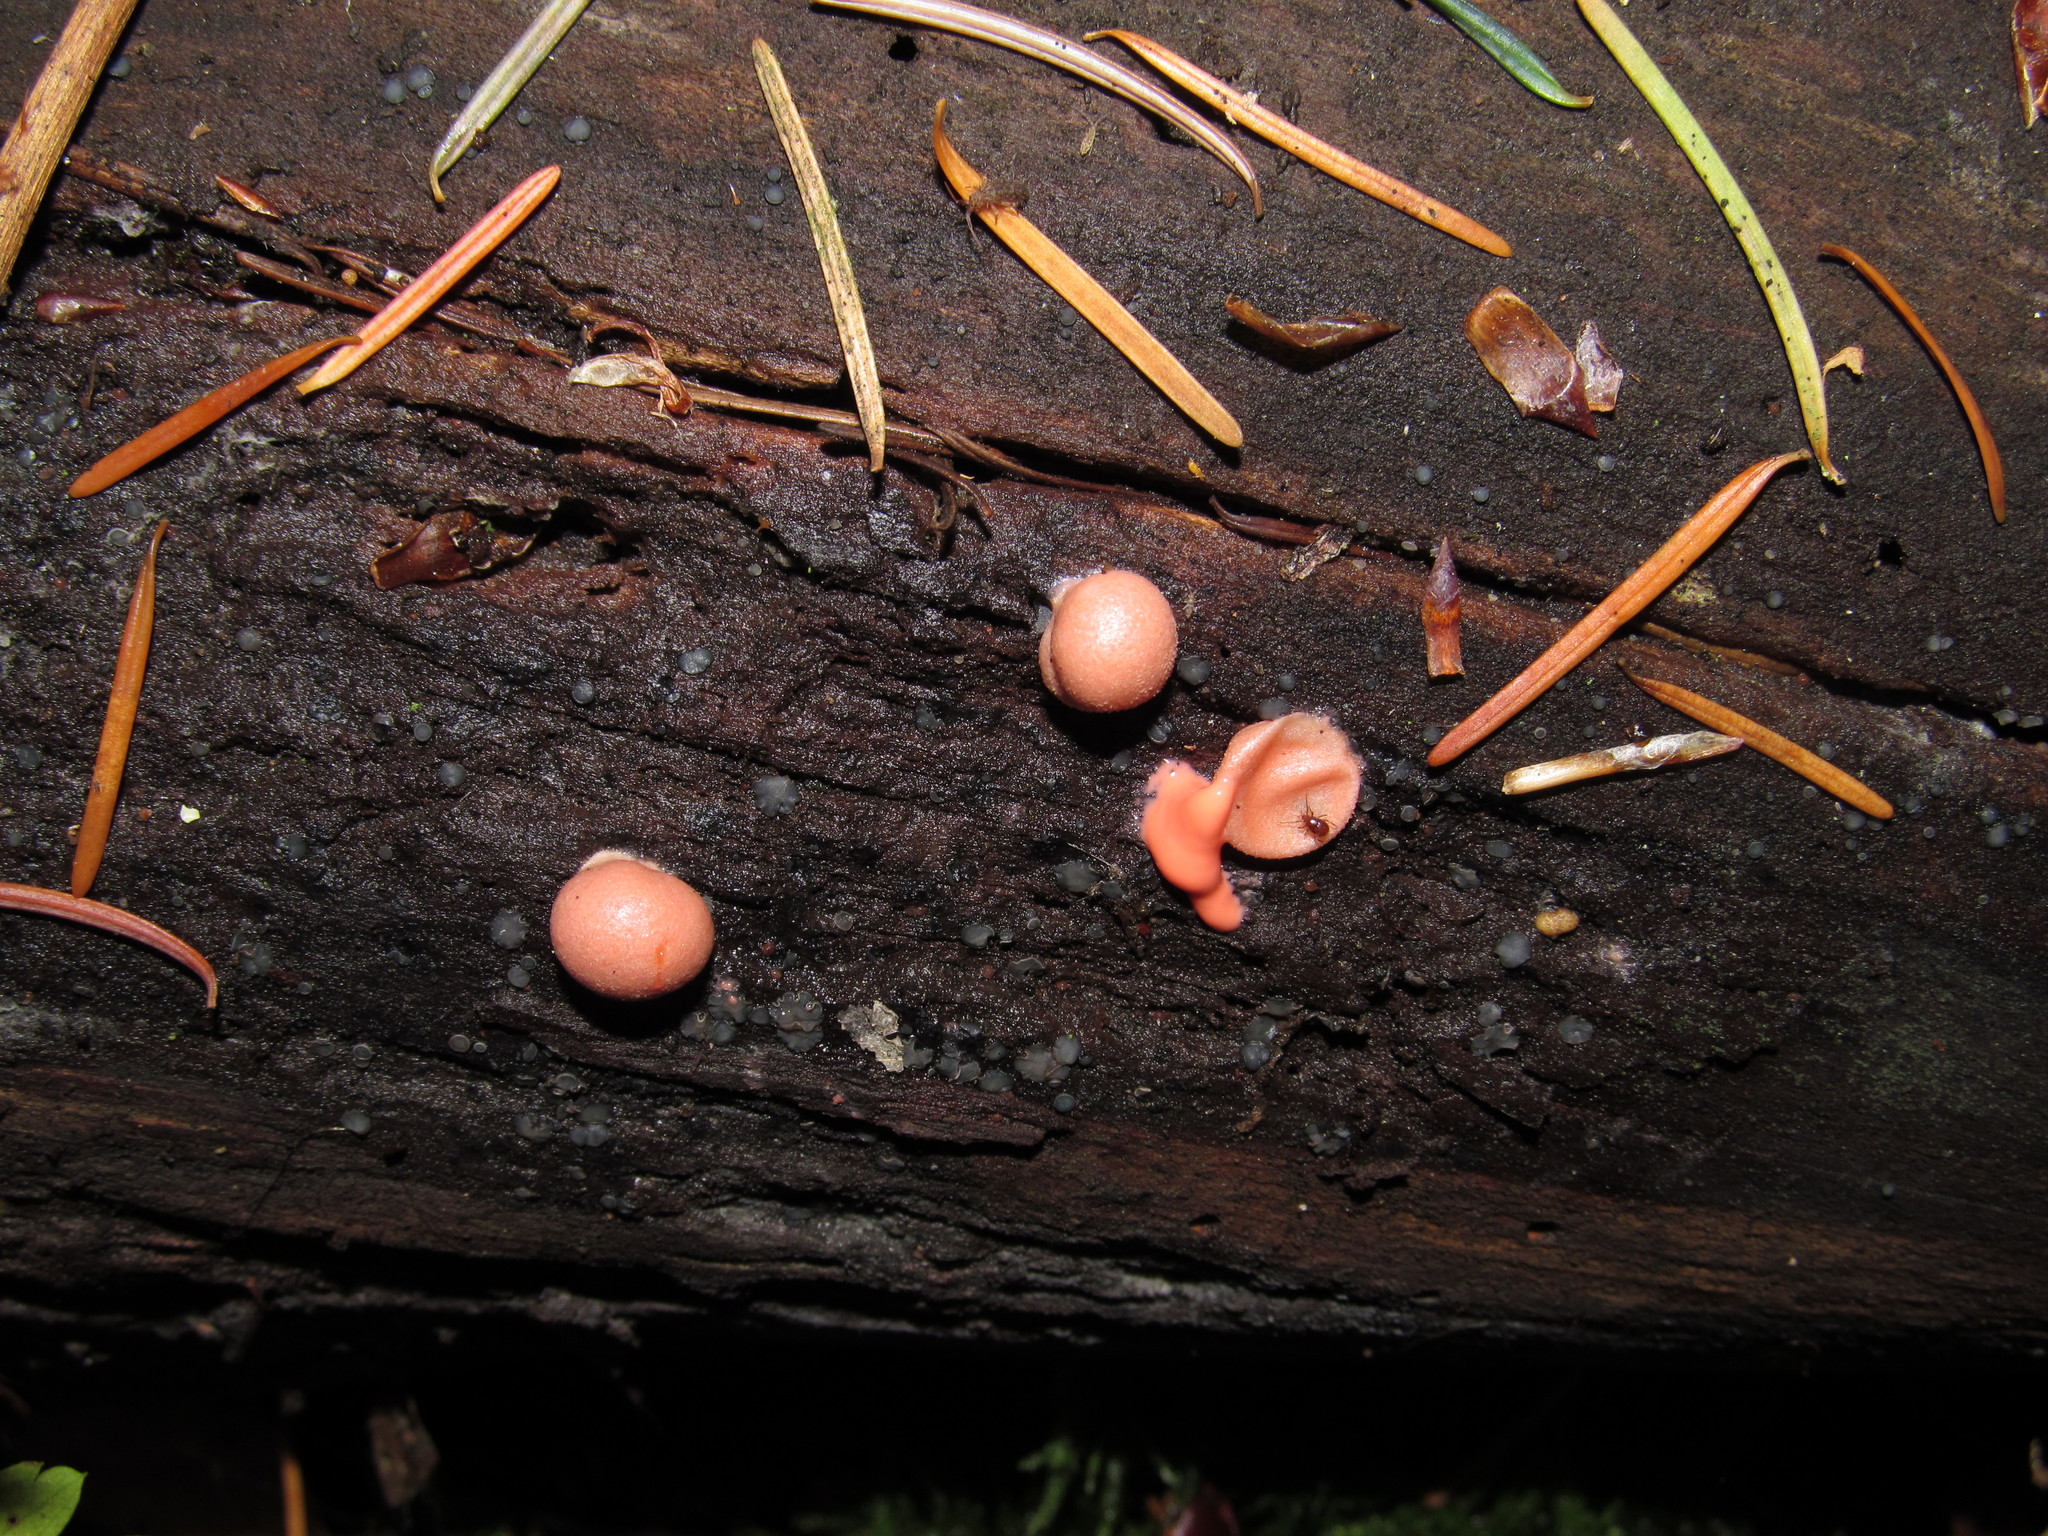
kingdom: Protozoa
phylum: Mycetozoa
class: Myxomycetes
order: Cribrariales
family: Tubiferaceae
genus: Lycogala
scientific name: Lycogala epidendrum
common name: Wolf's milk
